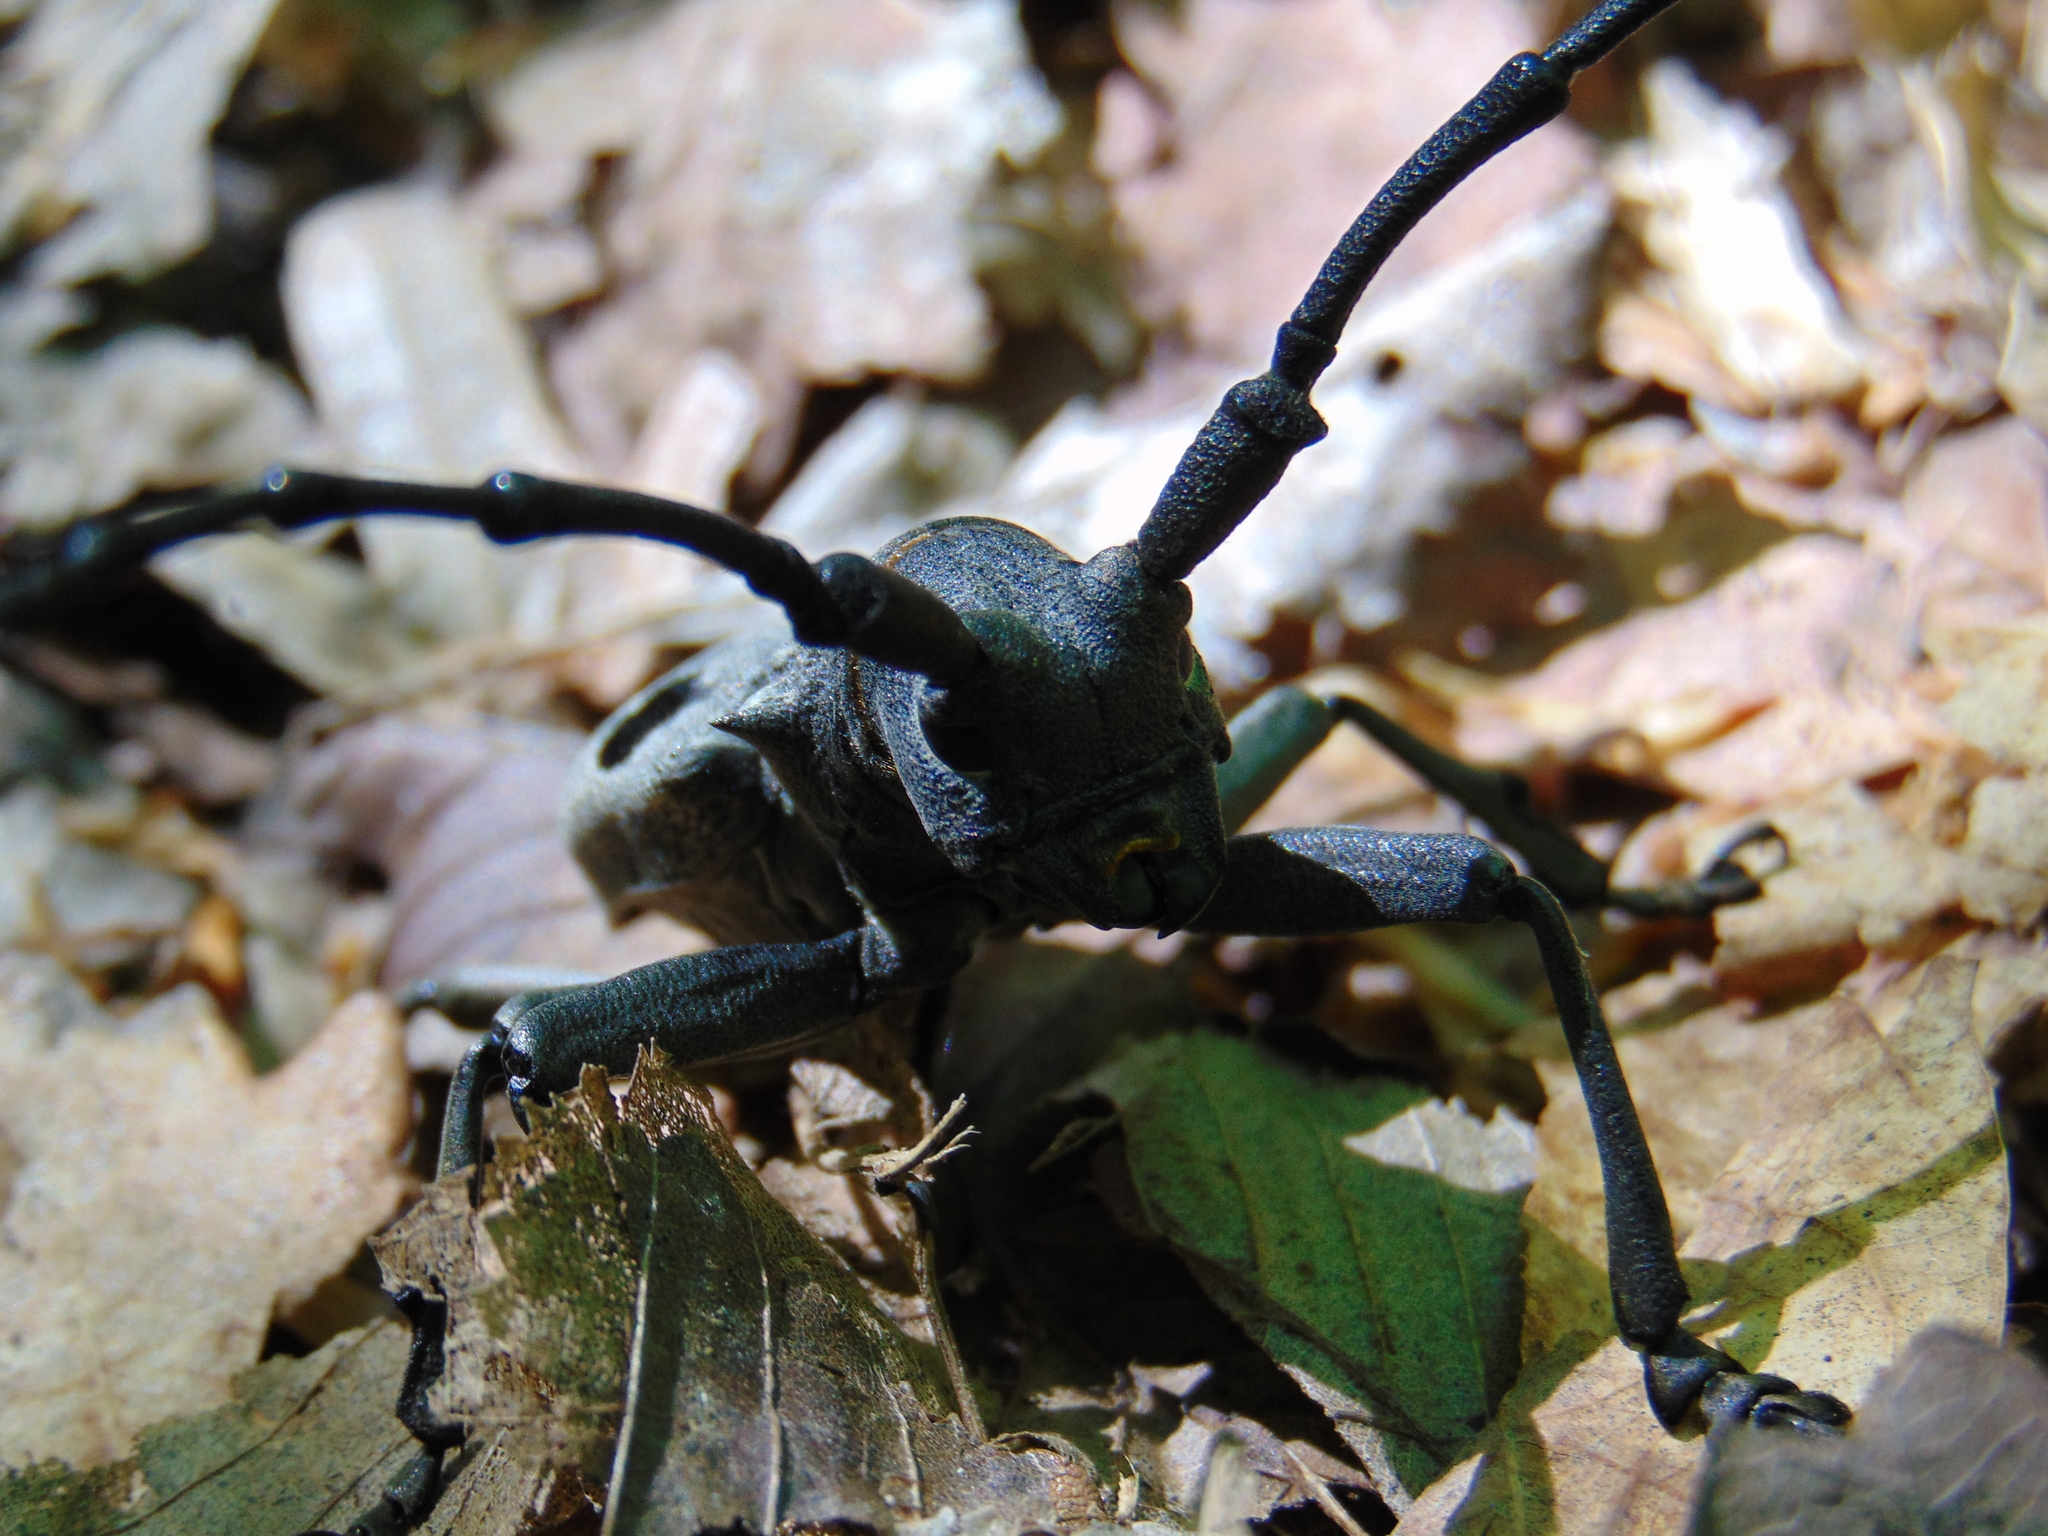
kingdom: Animalia
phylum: Arthropoda
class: Insecta
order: Coleoptera
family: Cerambycidae
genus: Morimus
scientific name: Morimus funereus
